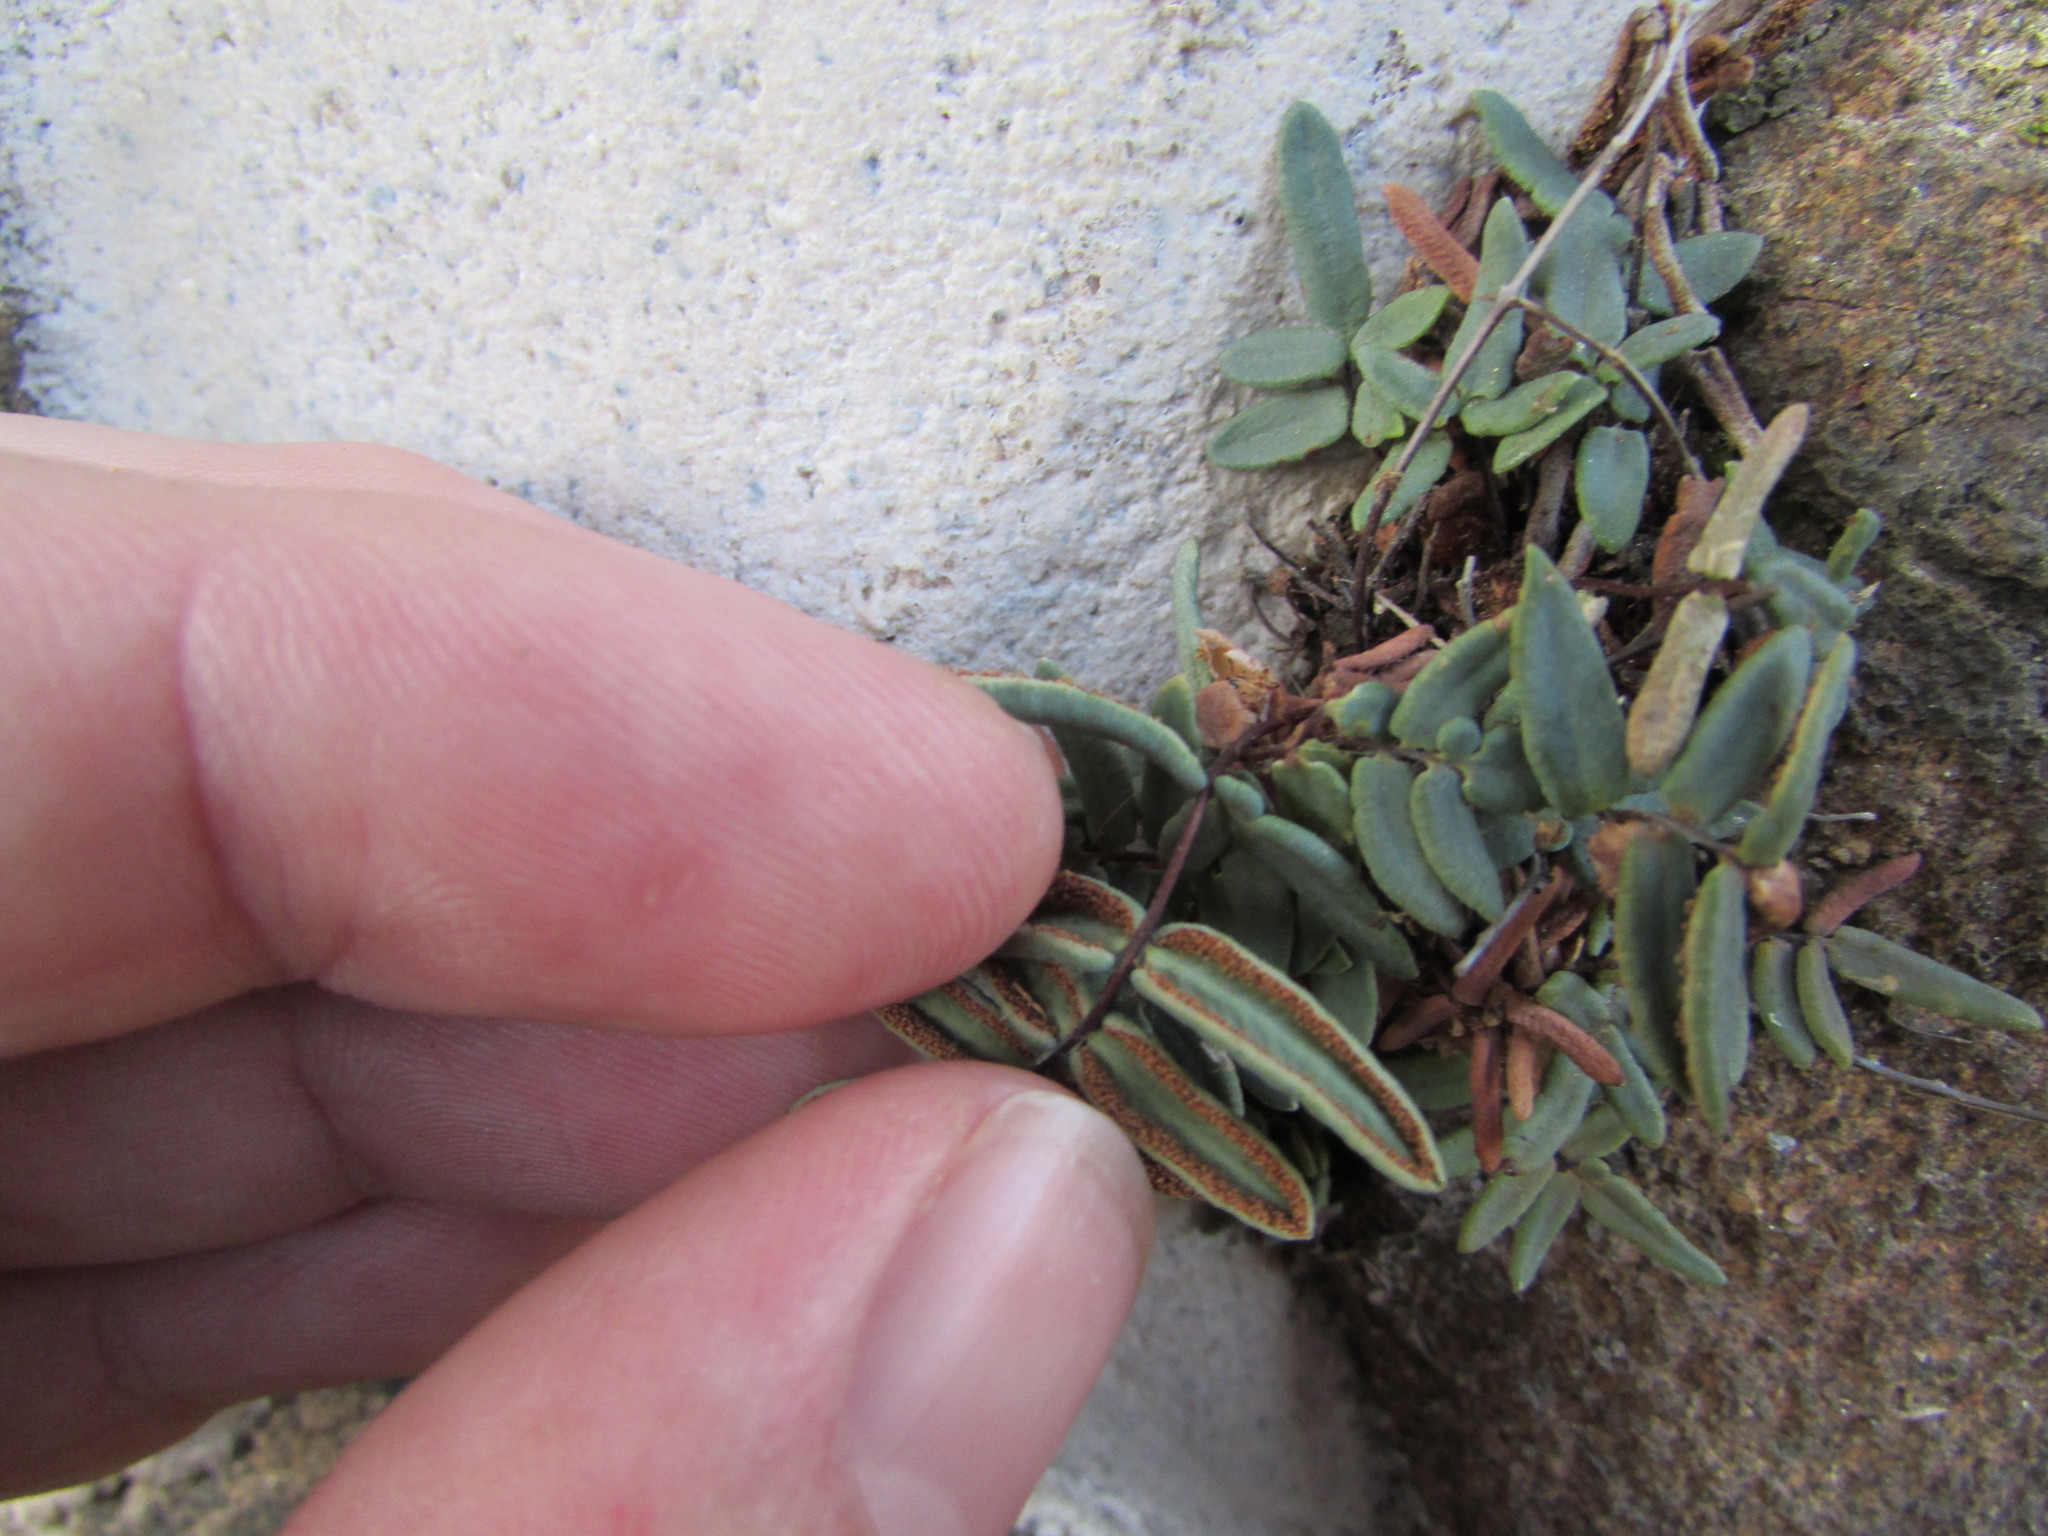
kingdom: Plantae
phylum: Tracheophyta
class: Polypodiopsida
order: Polypodiales
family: Pteridaceae
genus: Pellaea
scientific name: Pellaea atropurpurea
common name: Hairy cliffbrake
